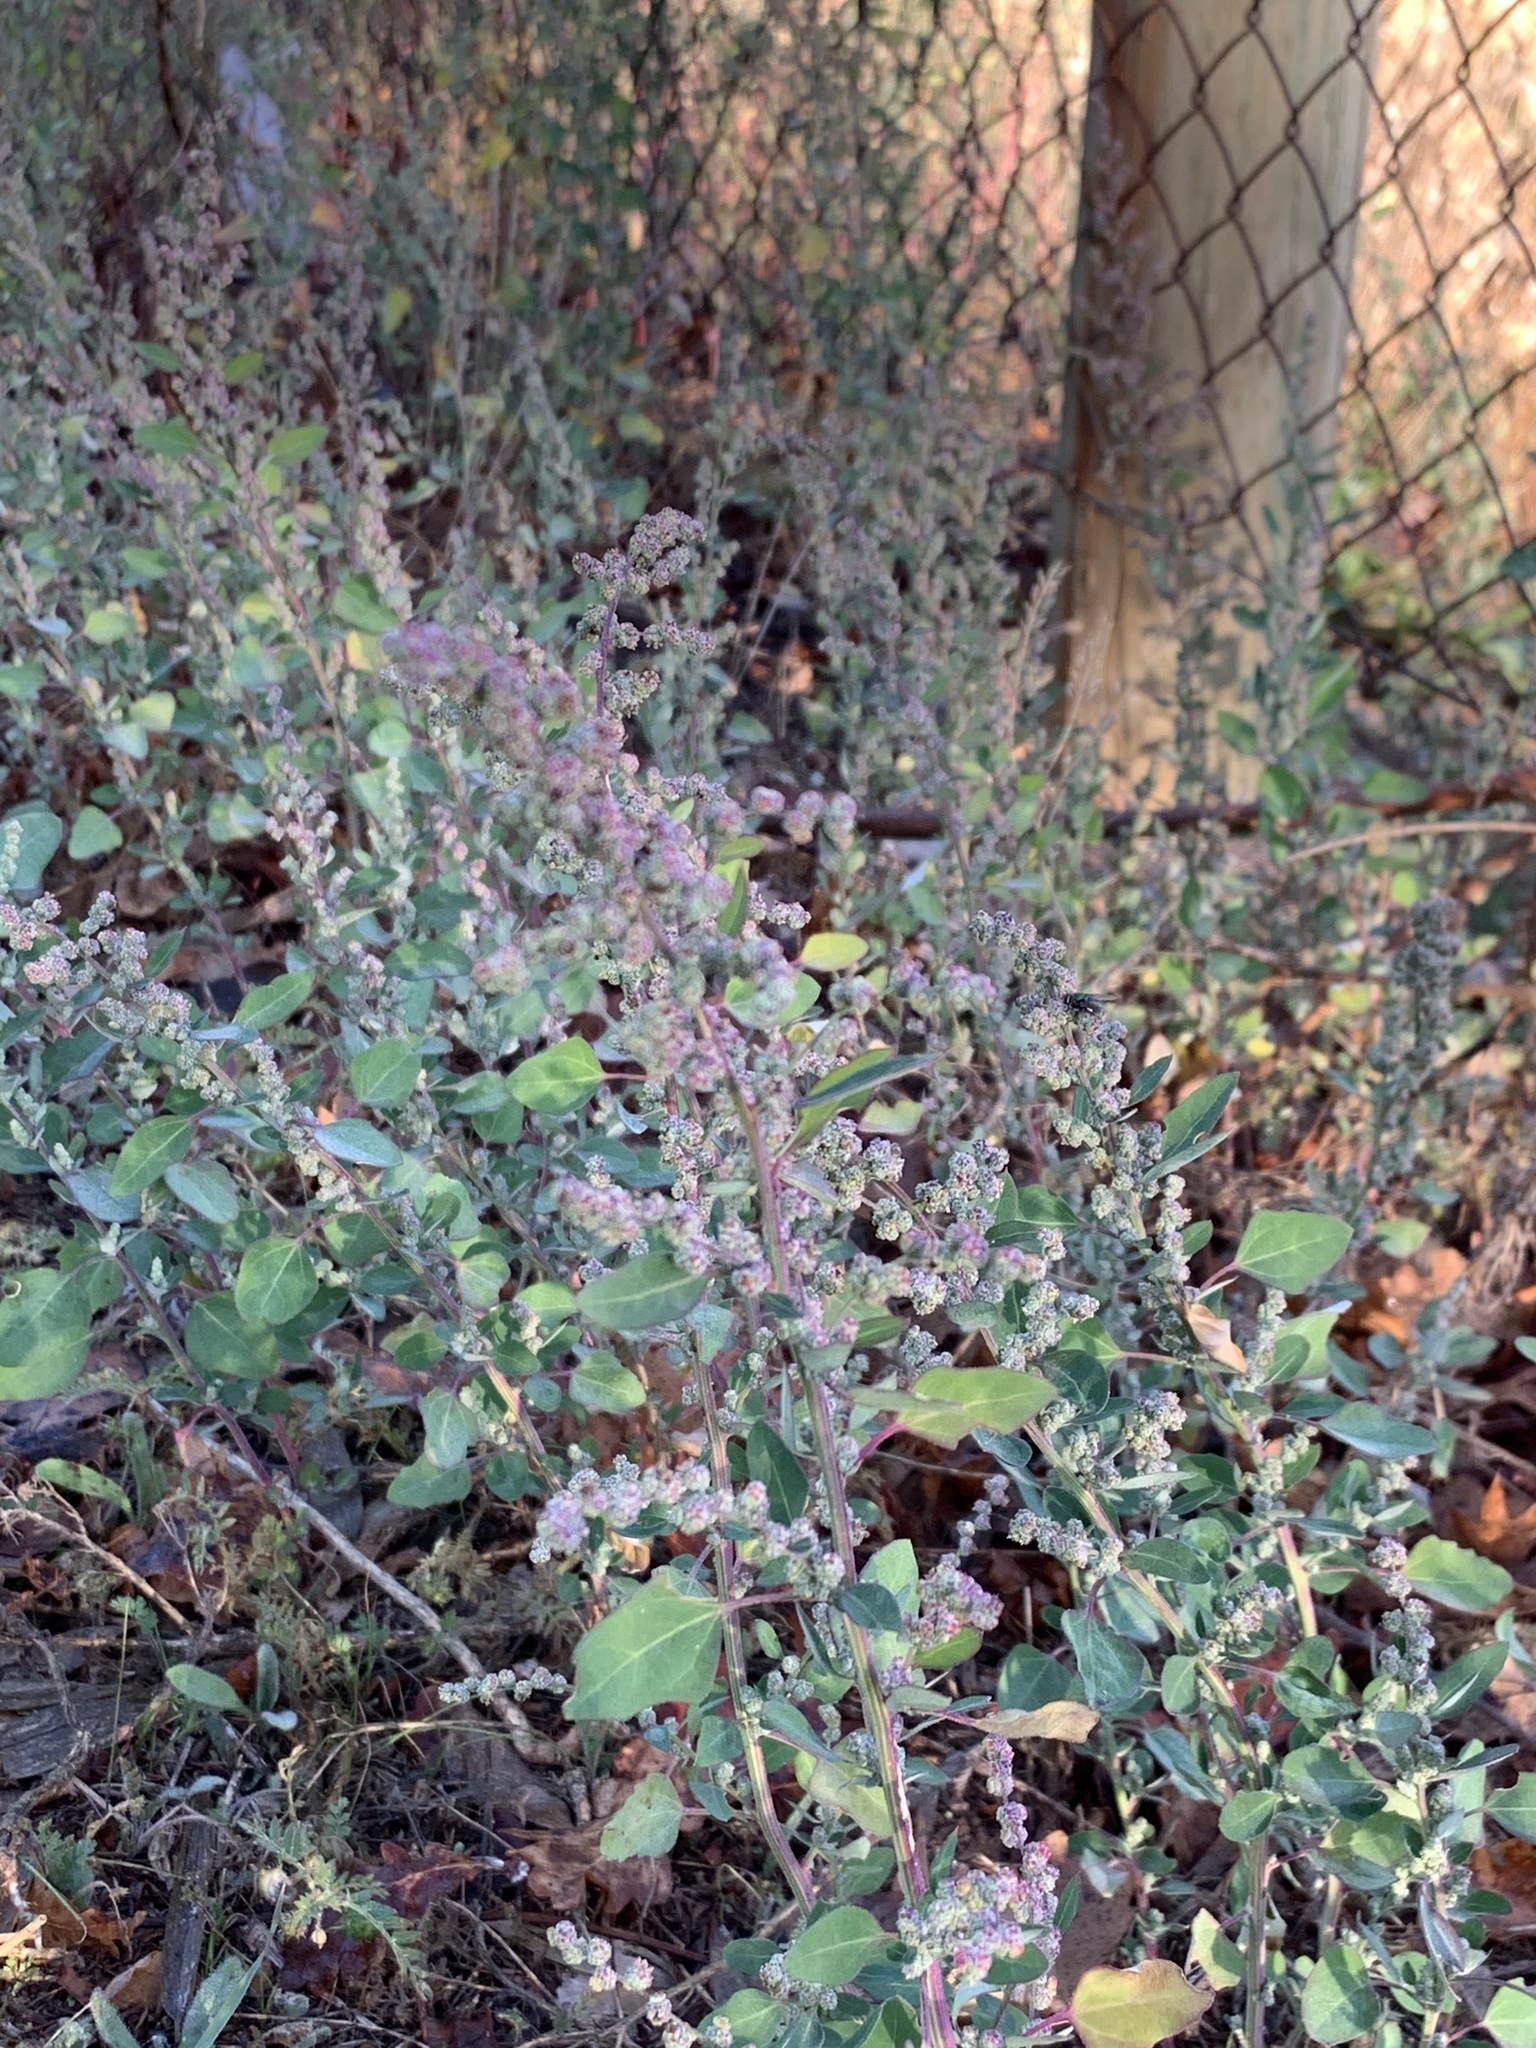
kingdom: Plantae
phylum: Tracheophyta
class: Magnoliopsida
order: Caryophyllales
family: Amaranthaceae
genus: Chenopodium
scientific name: Chenopodium album
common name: Fat-hen
